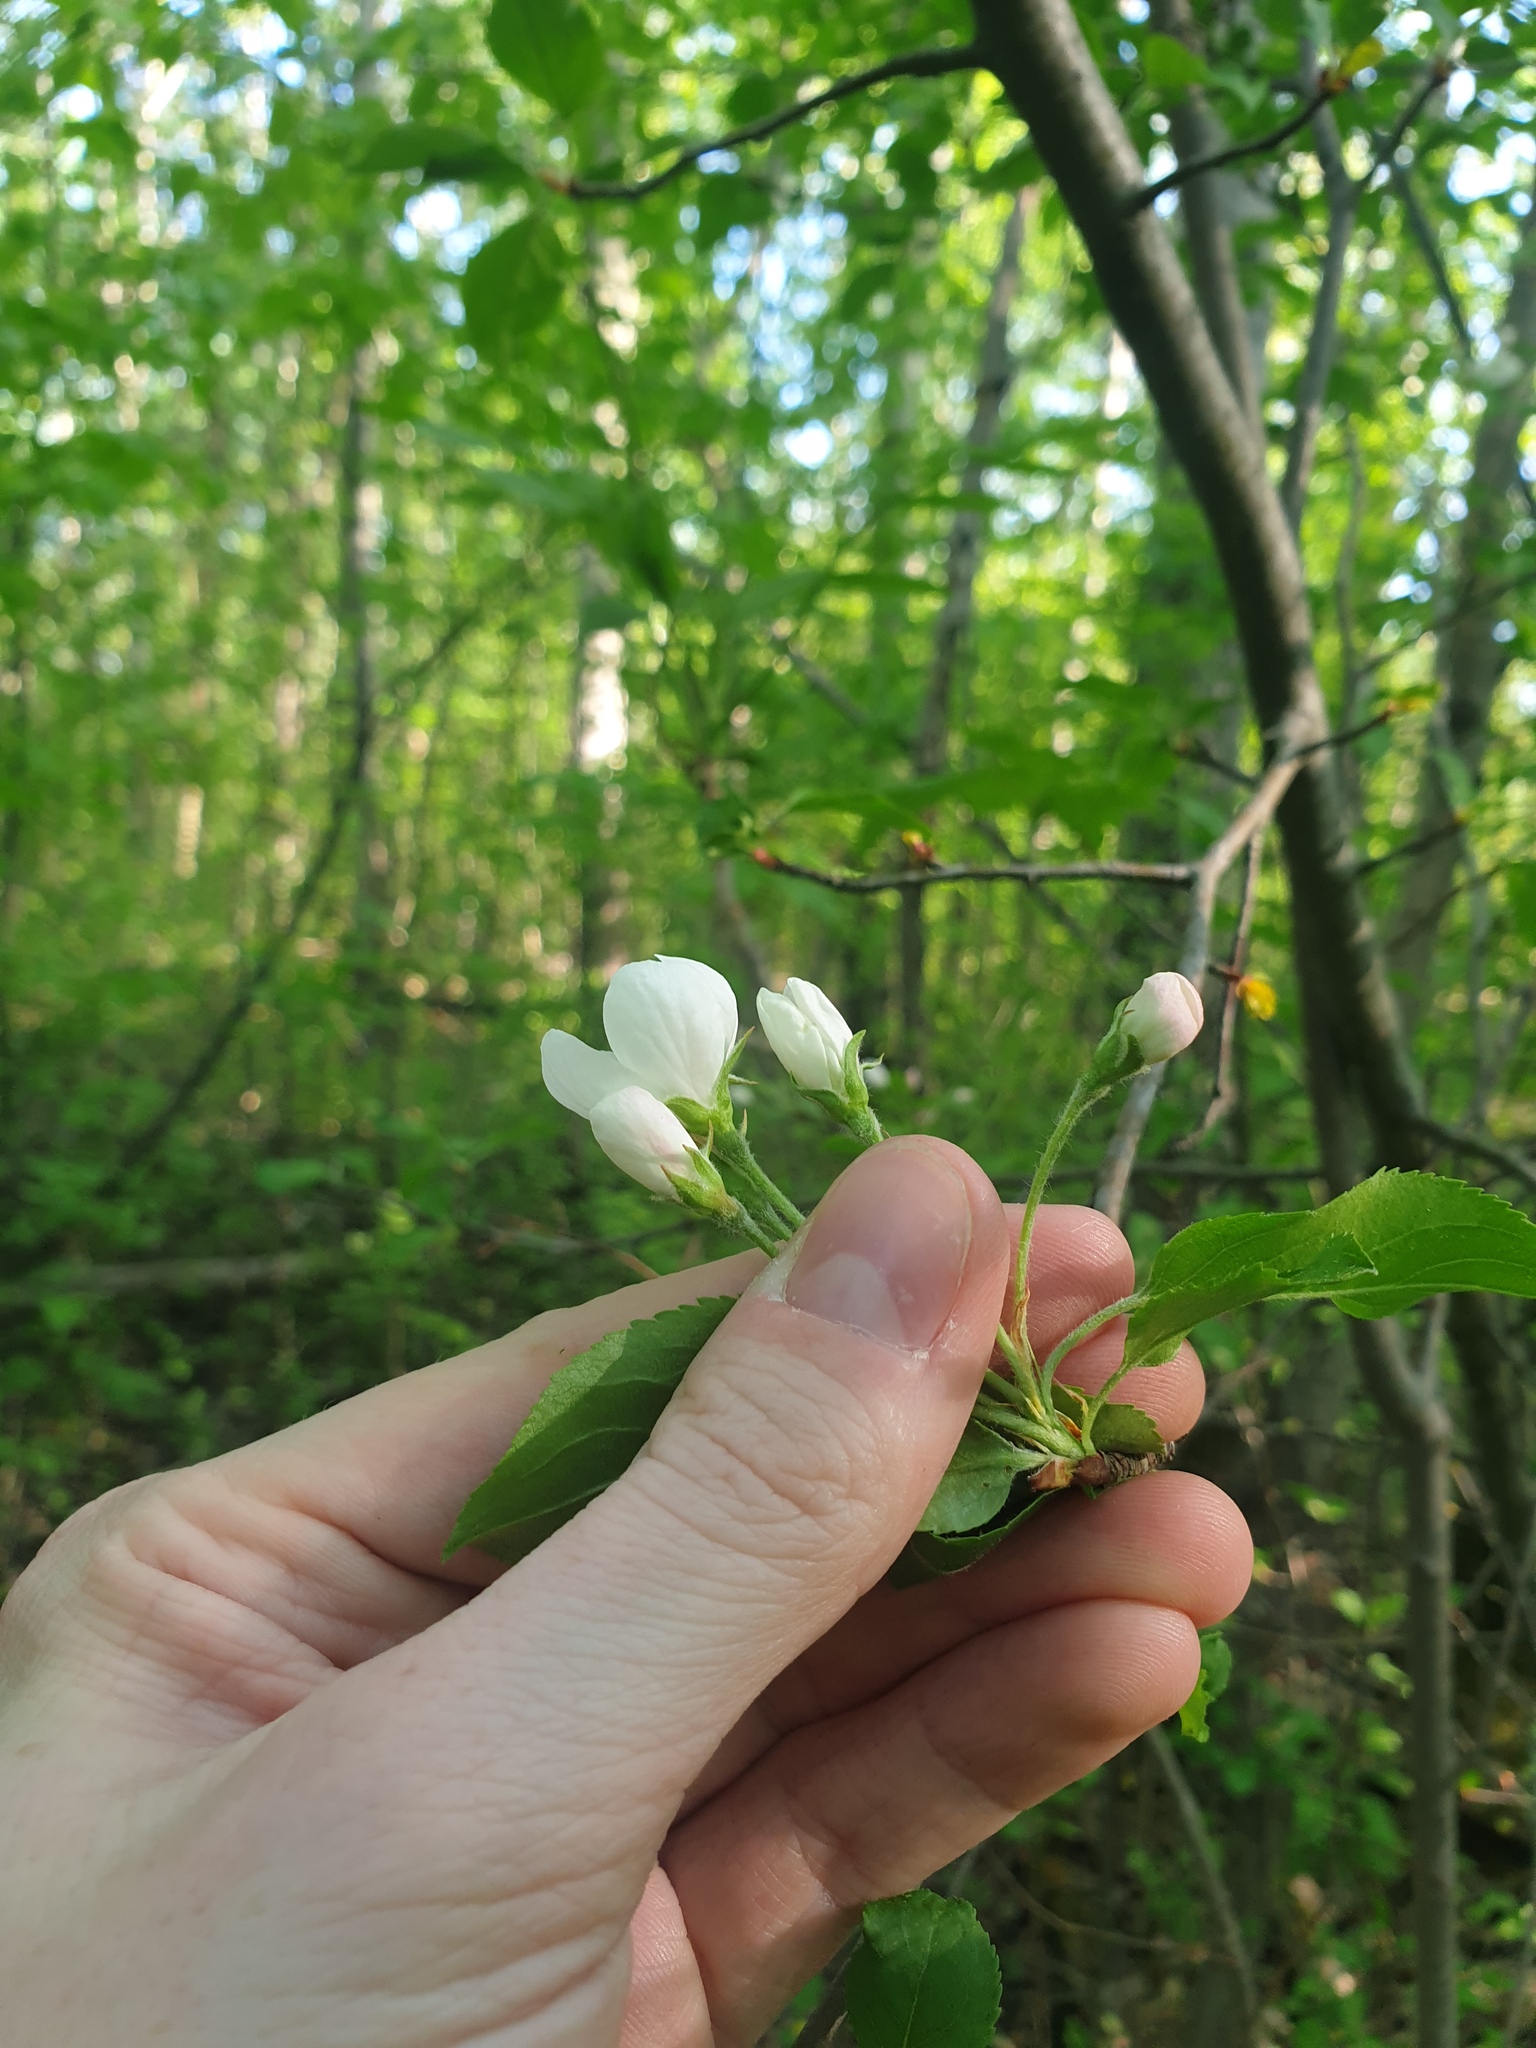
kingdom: Plantae
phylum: Tracheophyta
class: Magnoliopsida
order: Rosales
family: Rosaceae
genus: Malus
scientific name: Malus domestica
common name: Apple
